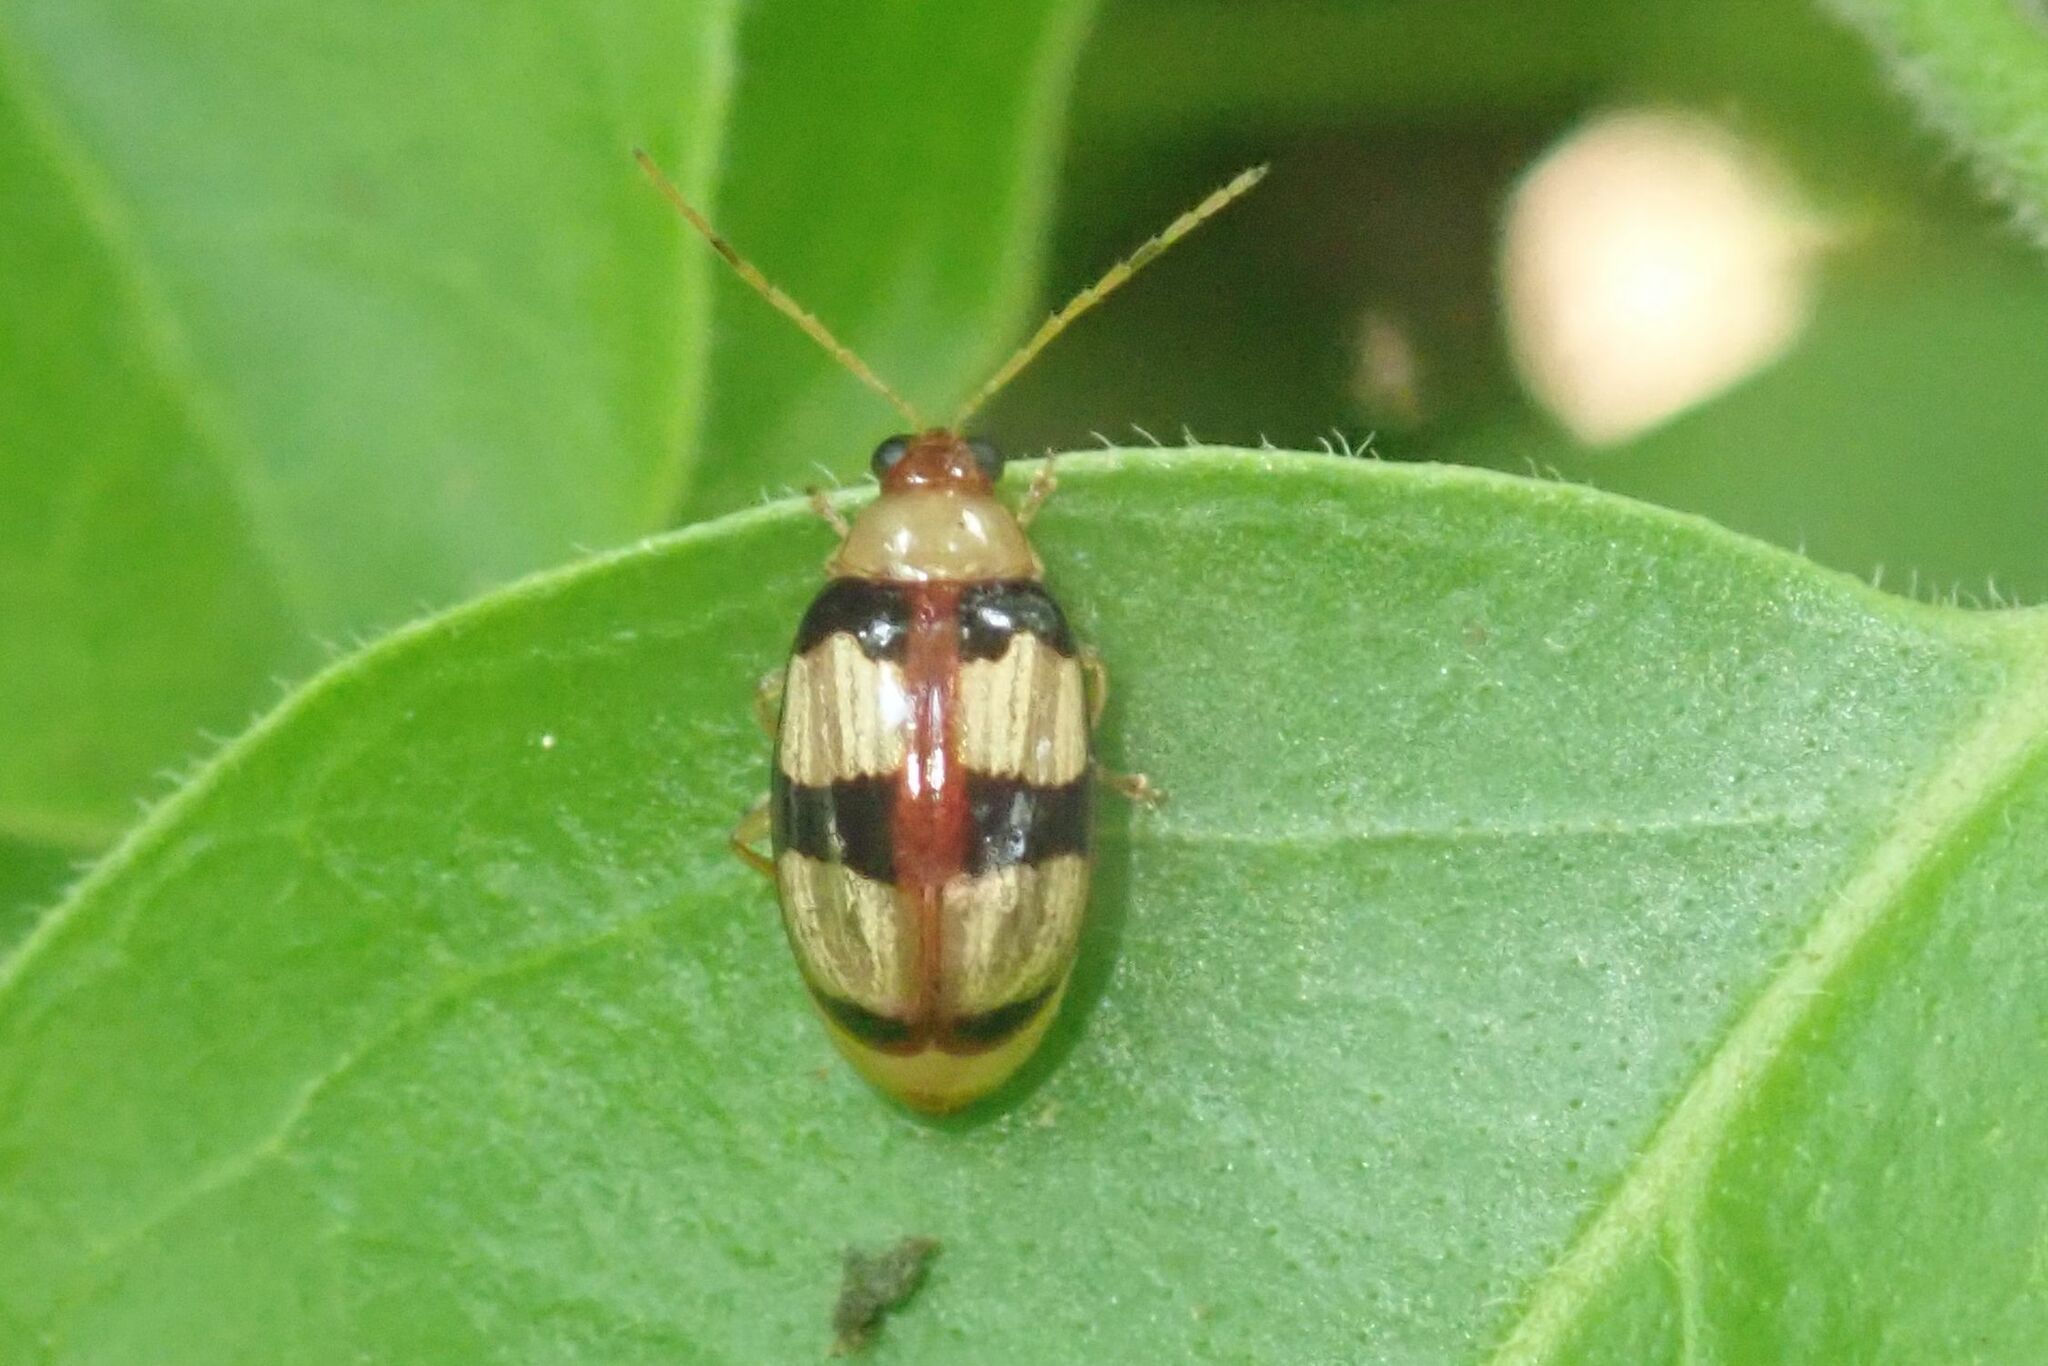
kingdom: Animalia
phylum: Arthropoda
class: Insecta
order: Coleoptera
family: Chrysomelidae
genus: Monolepta
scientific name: Monolepta
